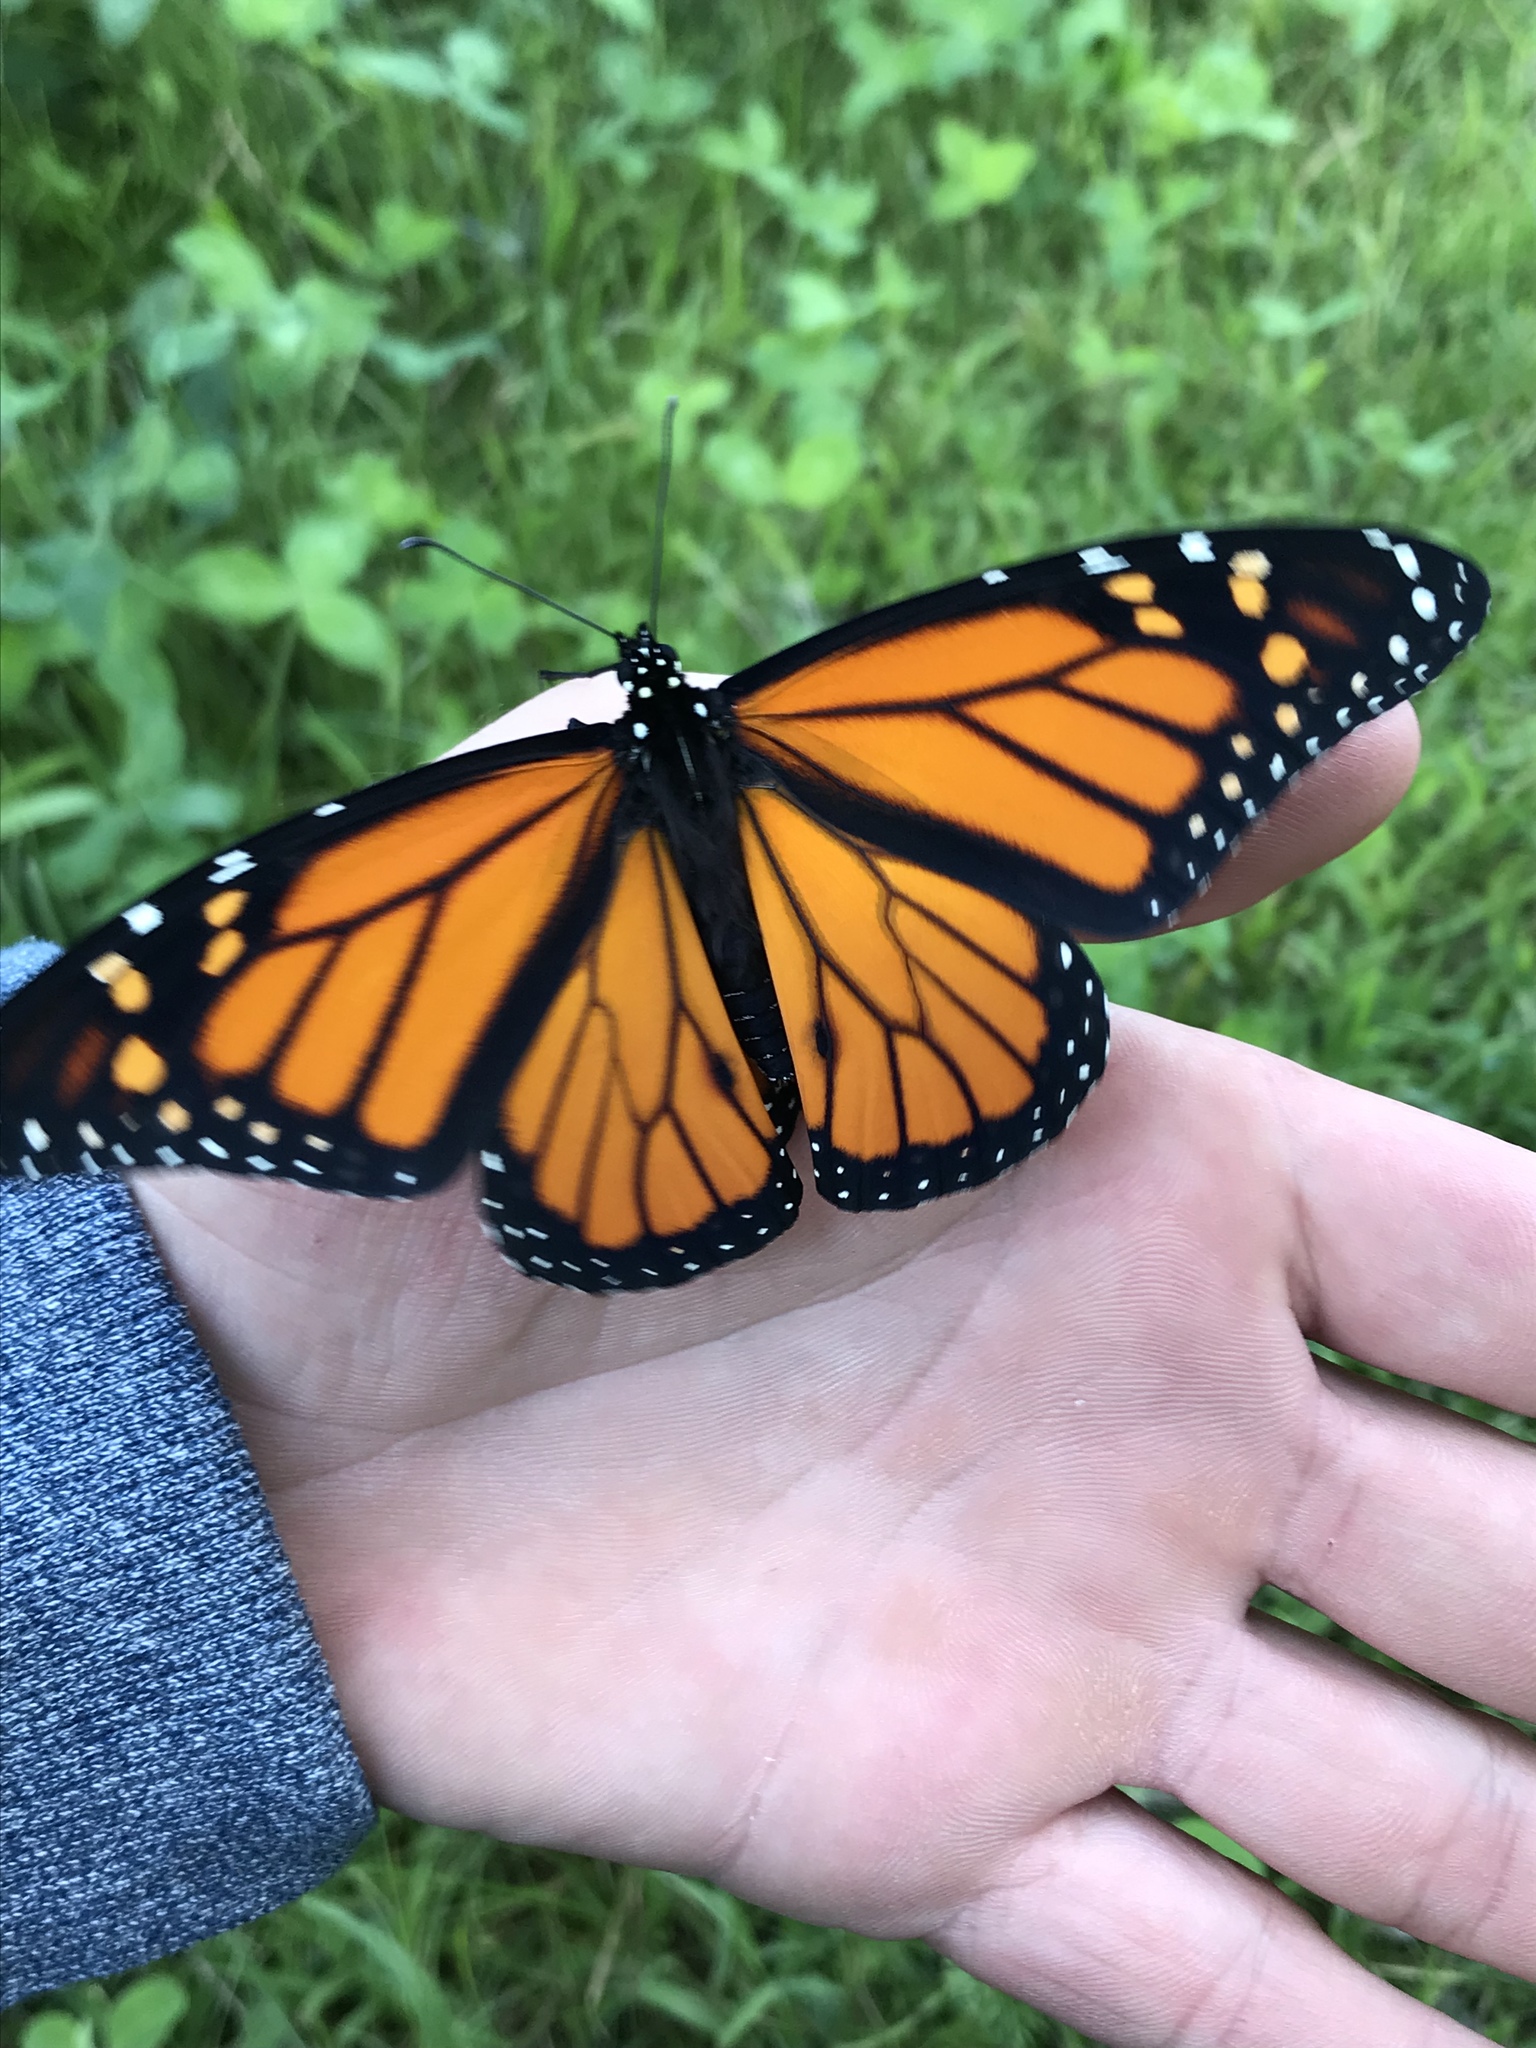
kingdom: Animalia
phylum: Arthropoda
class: Insecta
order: Lepidoptera
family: Nymphalidae
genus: Danaus
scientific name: Danaus plexippus
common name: Monarch
